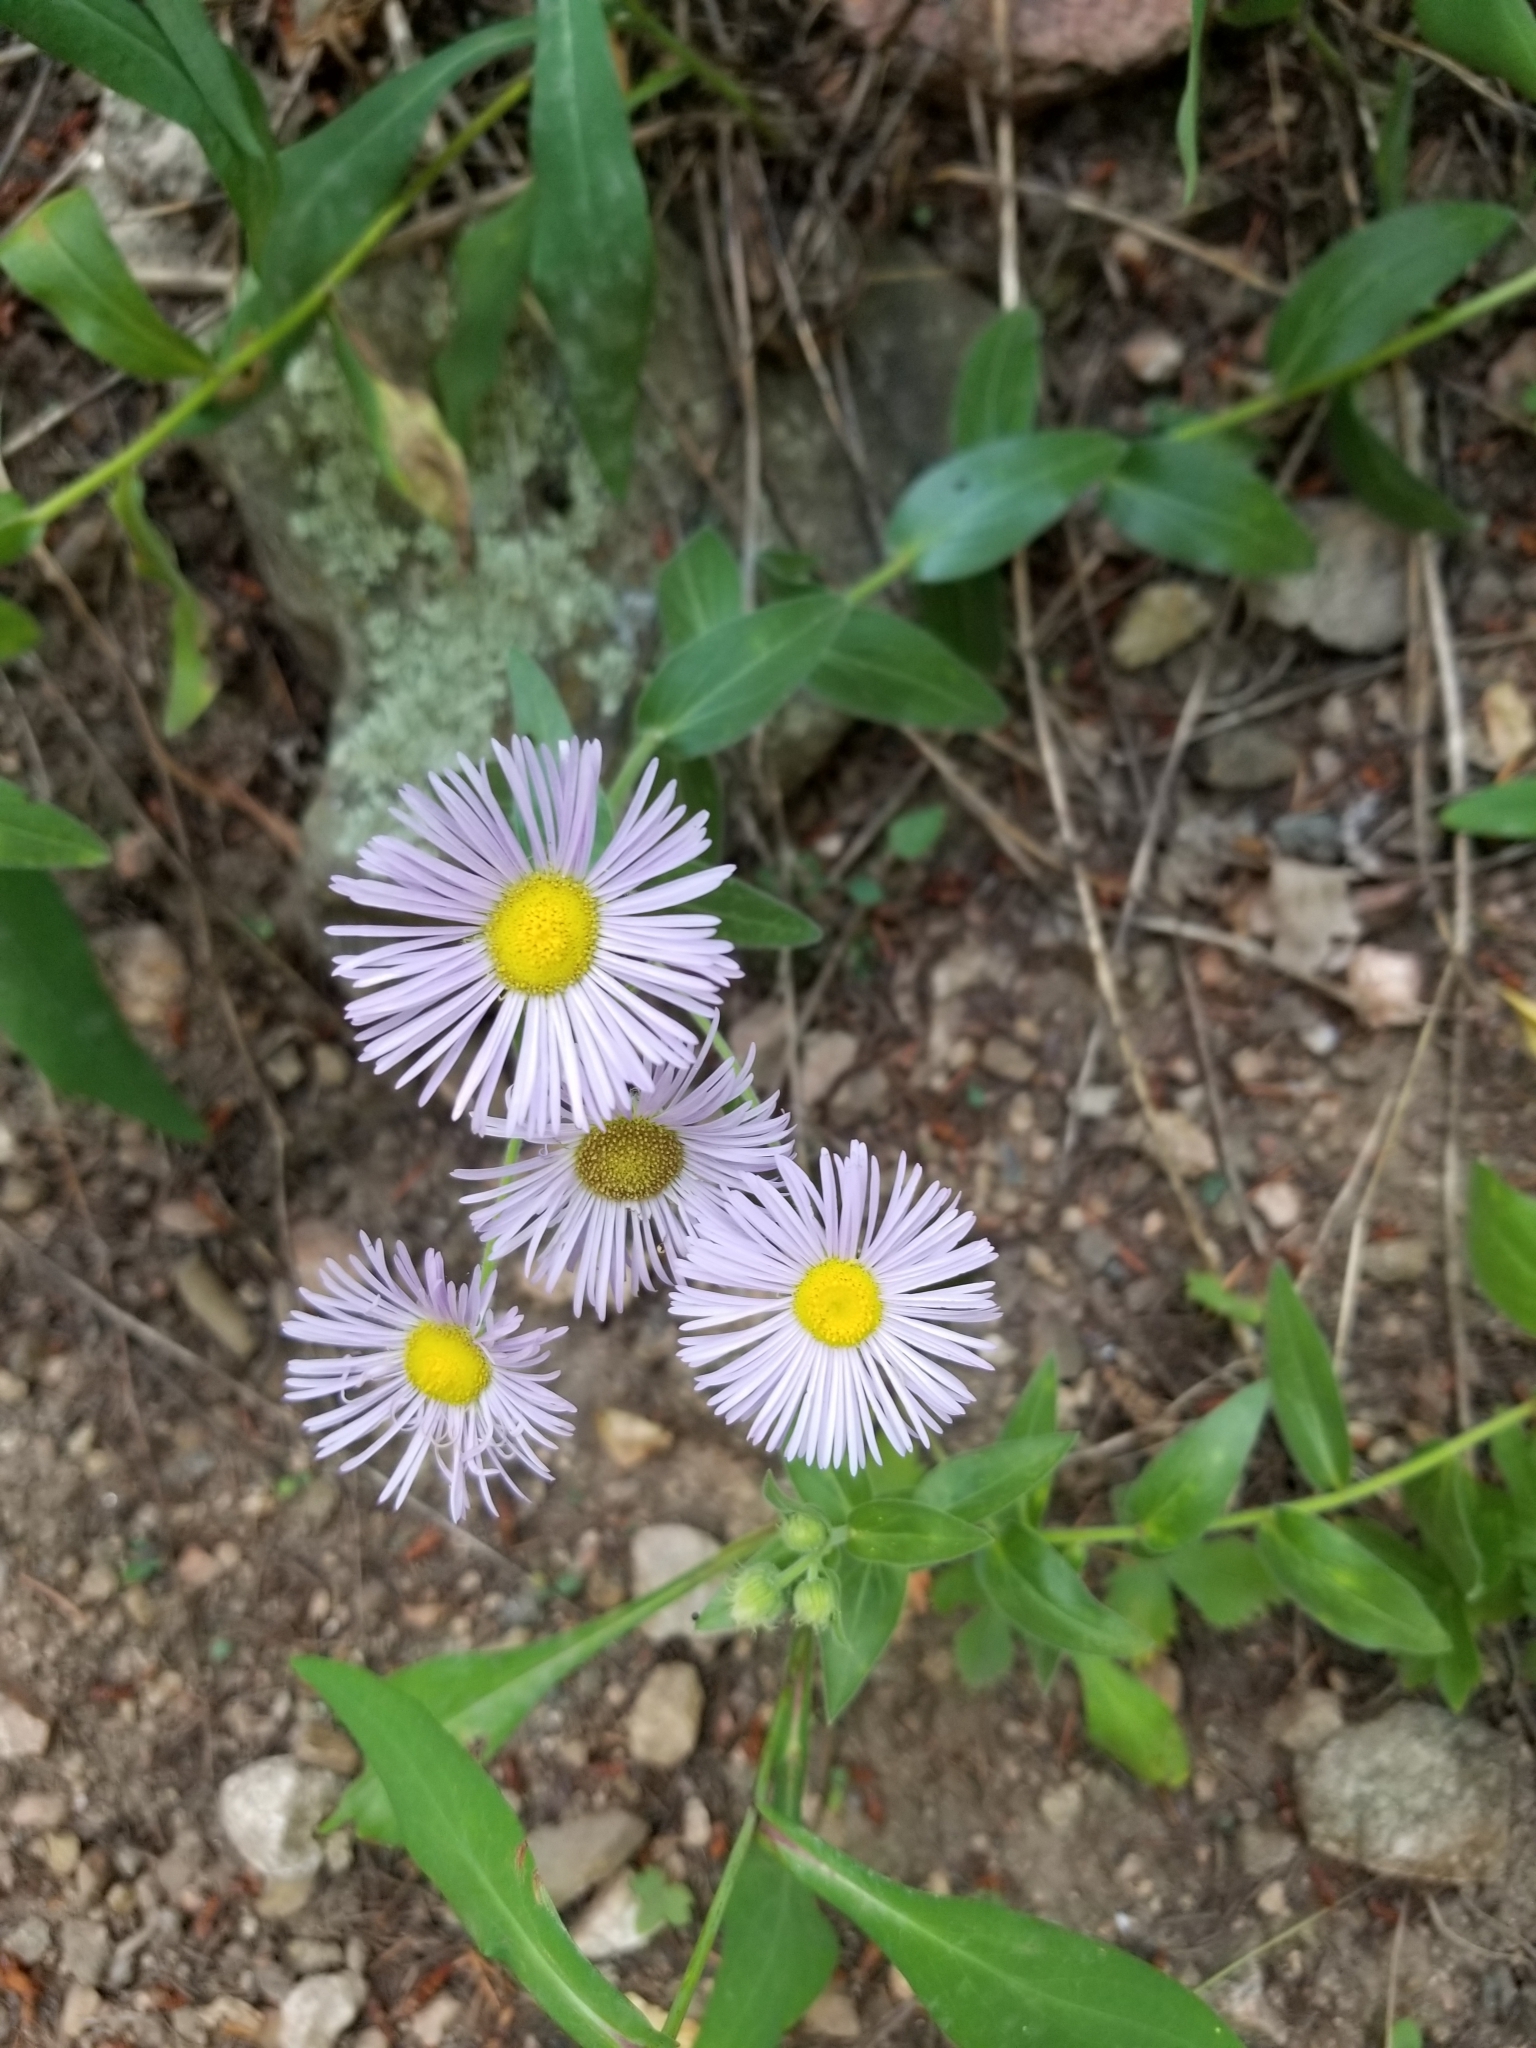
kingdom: Plantae
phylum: Tracheophyta
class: Magnoliopsida
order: Asterales
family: Asteraceae
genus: Erigeron
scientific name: Erigeron speciosus
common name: Aspen fleabane
